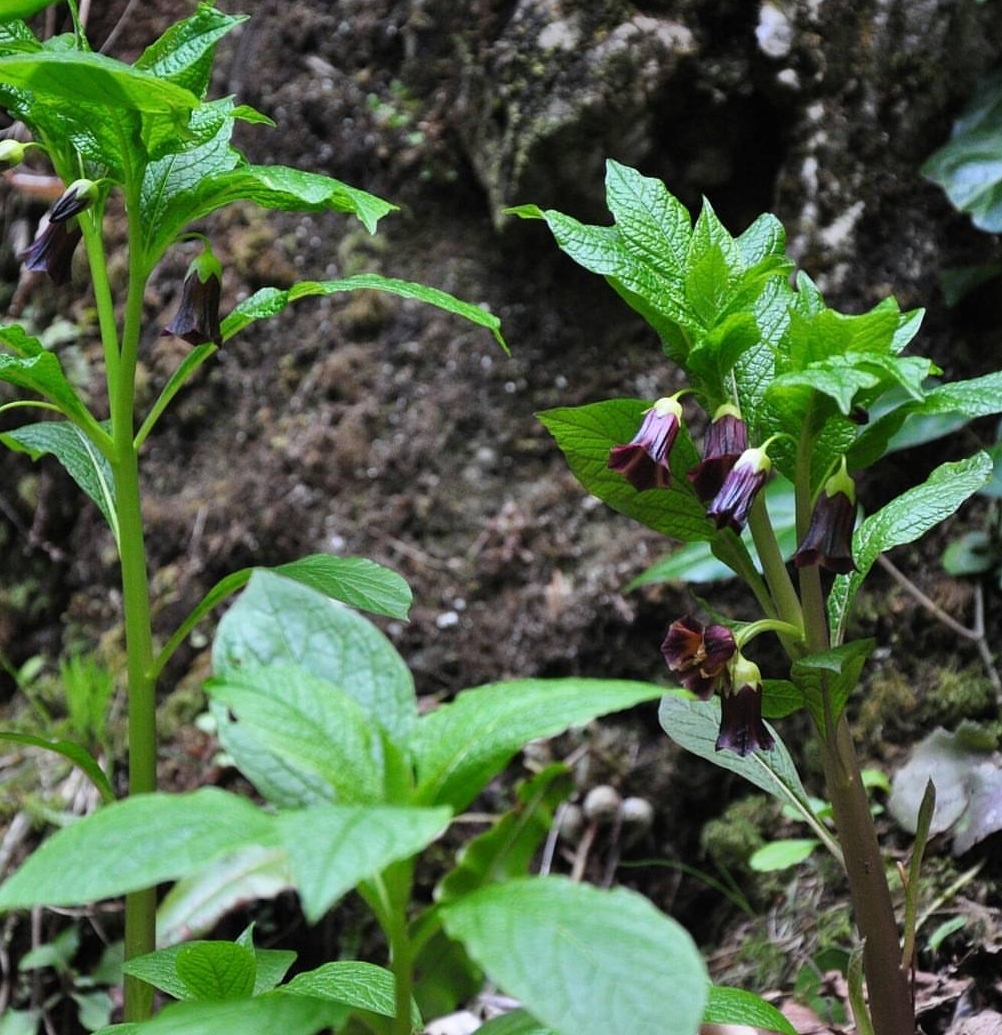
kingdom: Plantae
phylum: Tracheophyta
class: Magnoliopsida
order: Solanales
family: Solanaceae
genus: Scopolia
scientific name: Scopolia carniolica
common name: Scopolia
